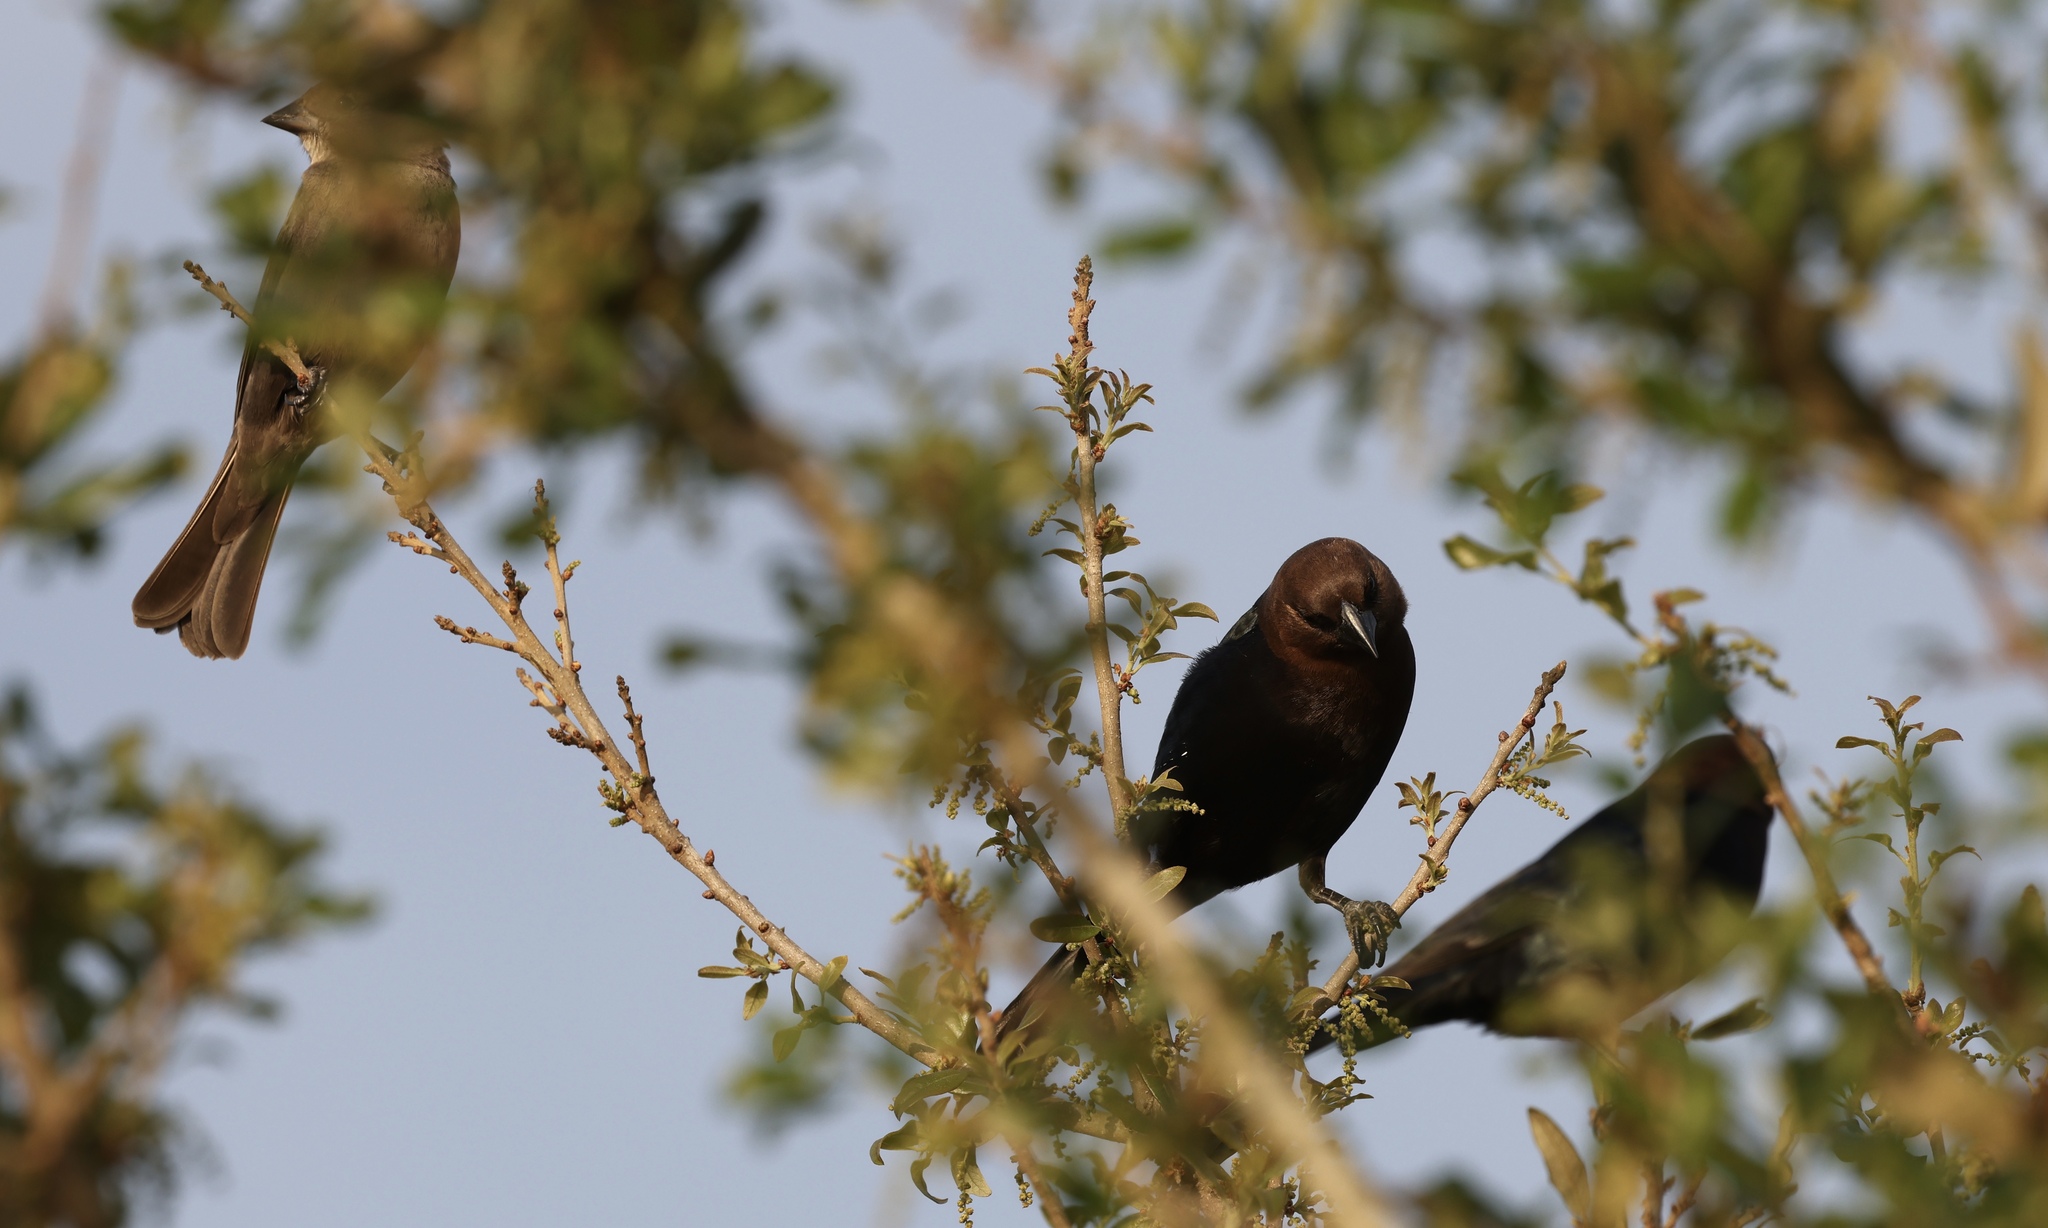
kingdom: Animalia
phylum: Chordata
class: Aves
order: Passeriformes
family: Icteridae
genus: Molothrus
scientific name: Molothrus ater
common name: Brown-headed cowbird
